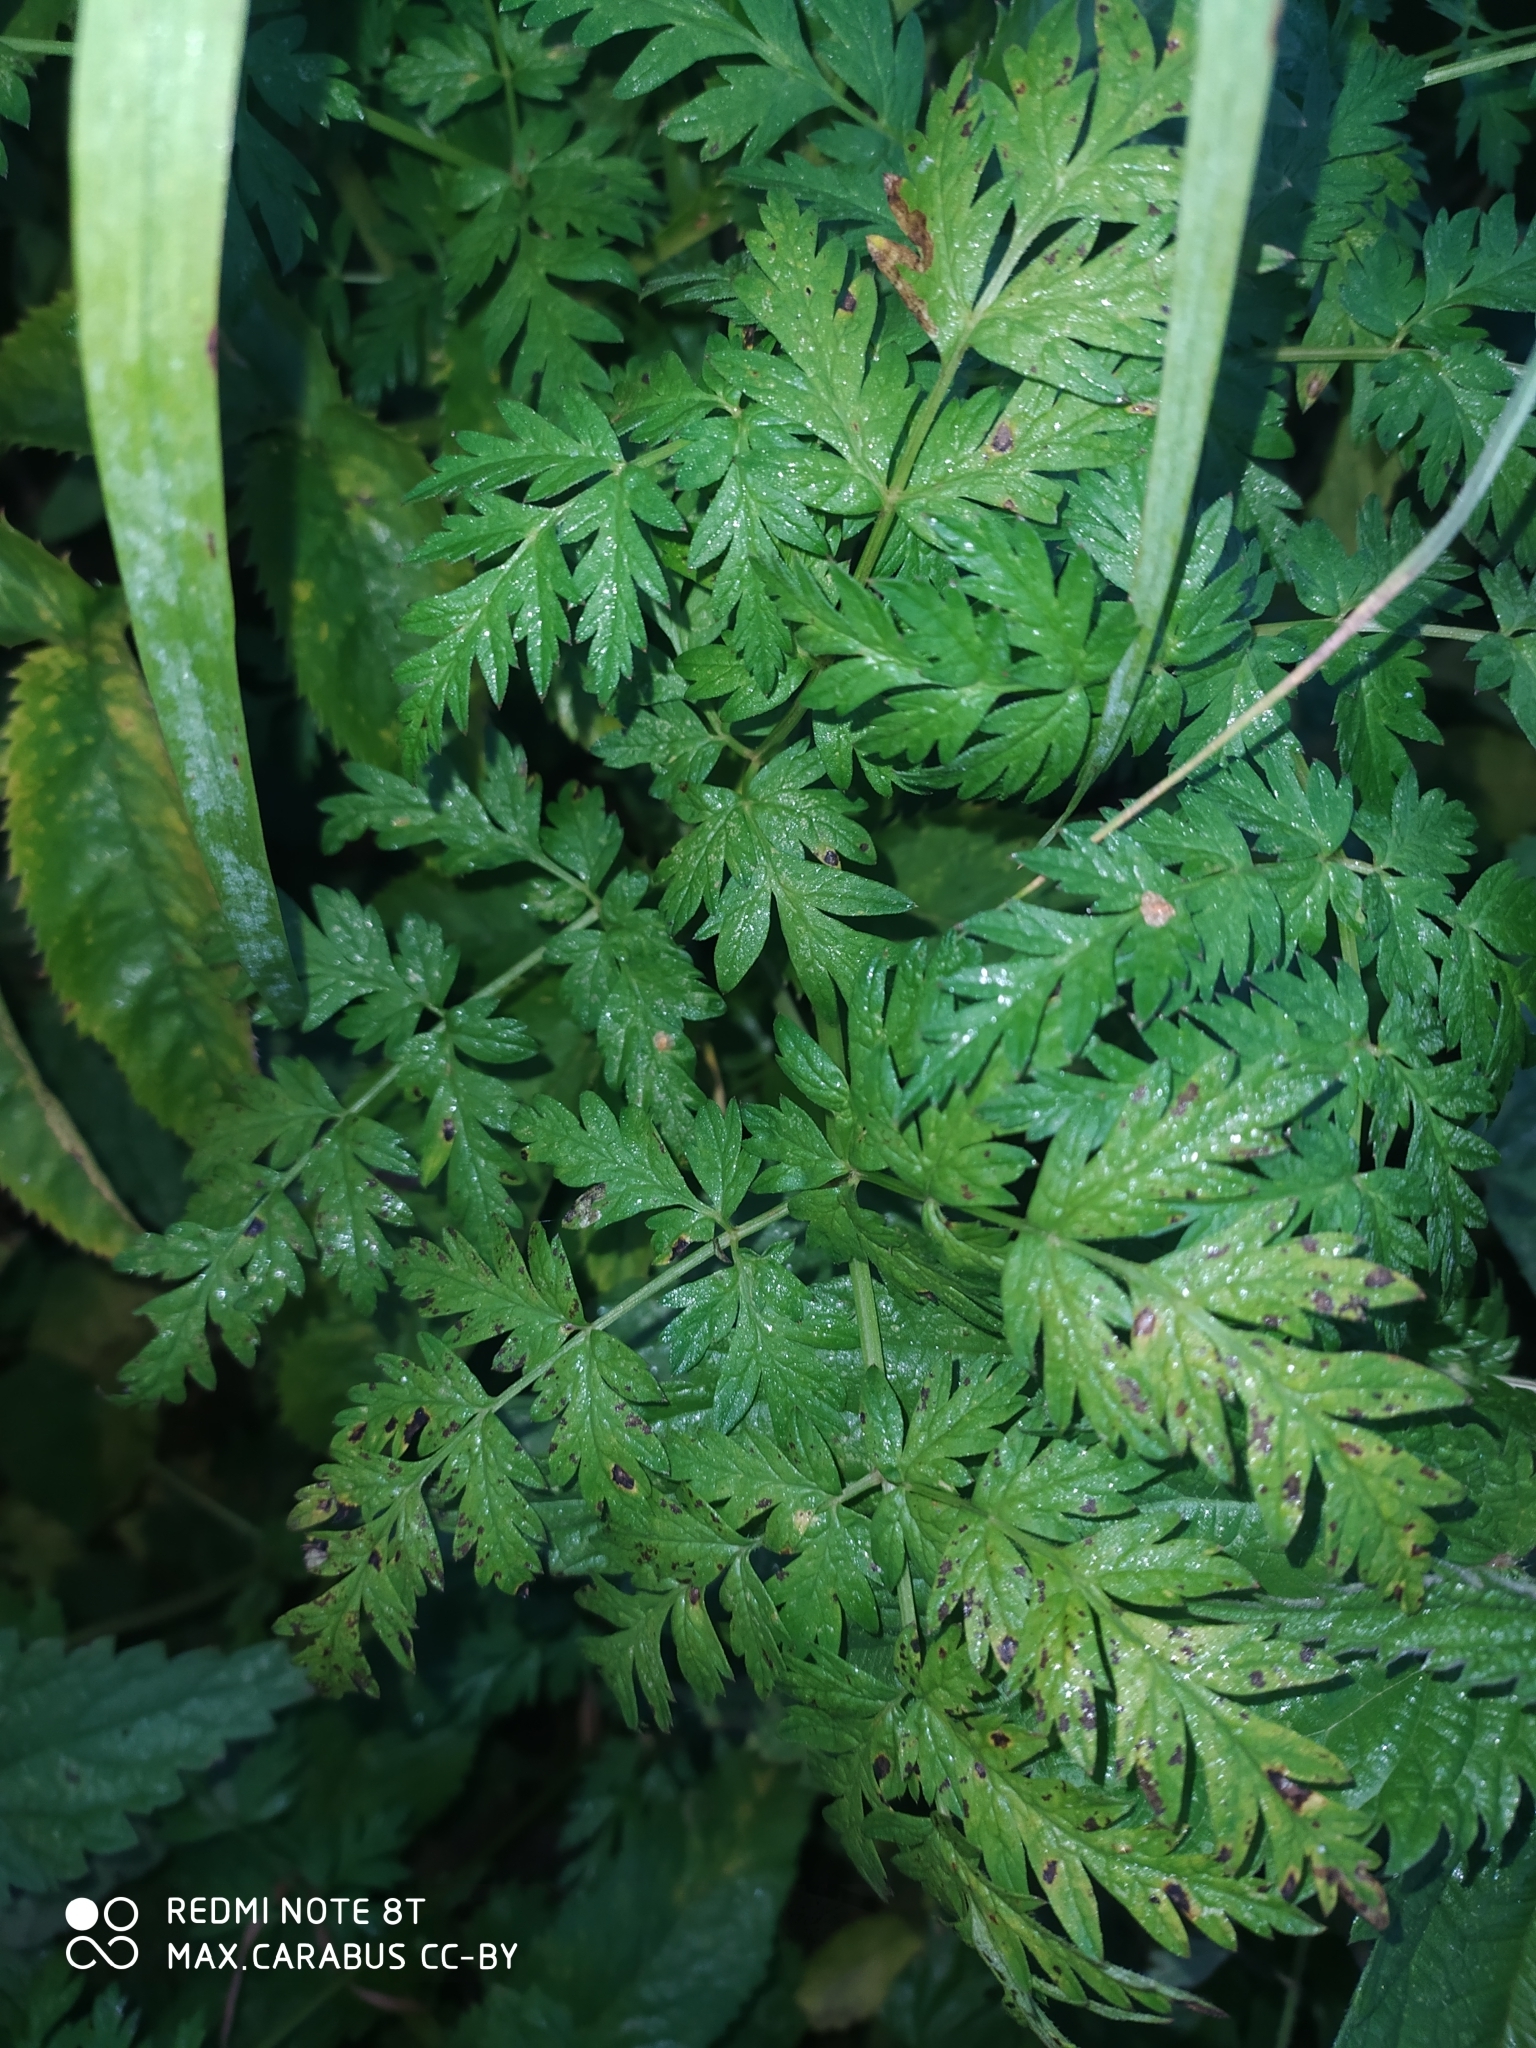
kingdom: Plantae
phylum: Tracheophyta
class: Magnoliopsida
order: Apiales
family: Apiaceae
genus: Anthriscus
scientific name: Anthriscus sylvestris
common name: Cow parsley
